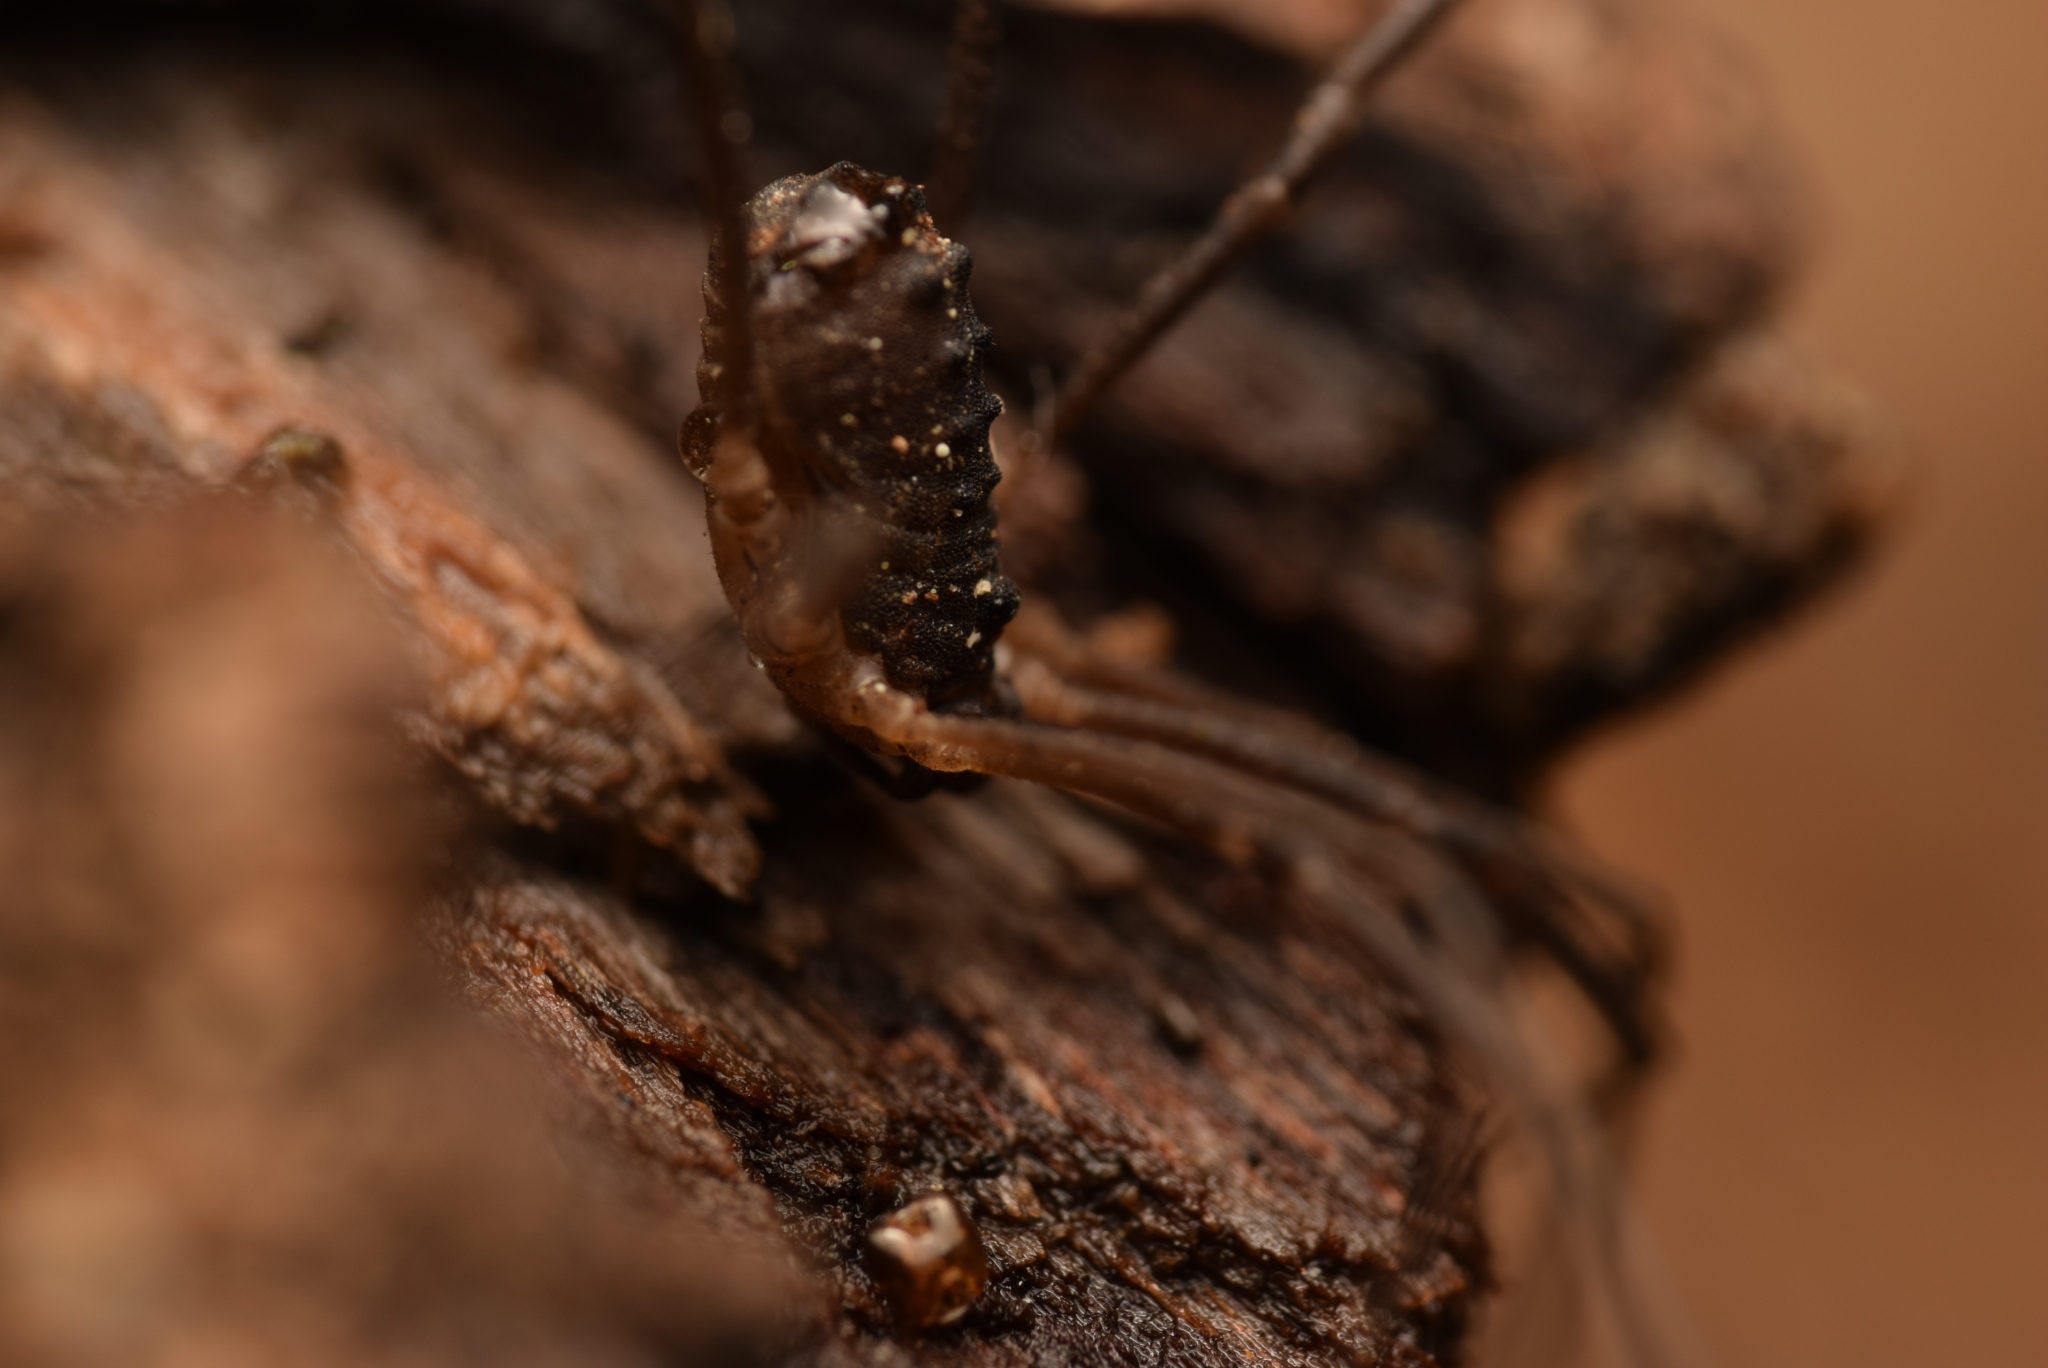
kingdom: Animalia
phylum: Arthropoda
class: Arachnida
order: Opiliones
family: Sclerosomatidae
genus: Astrobunus
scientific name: Astrobunus grallator
